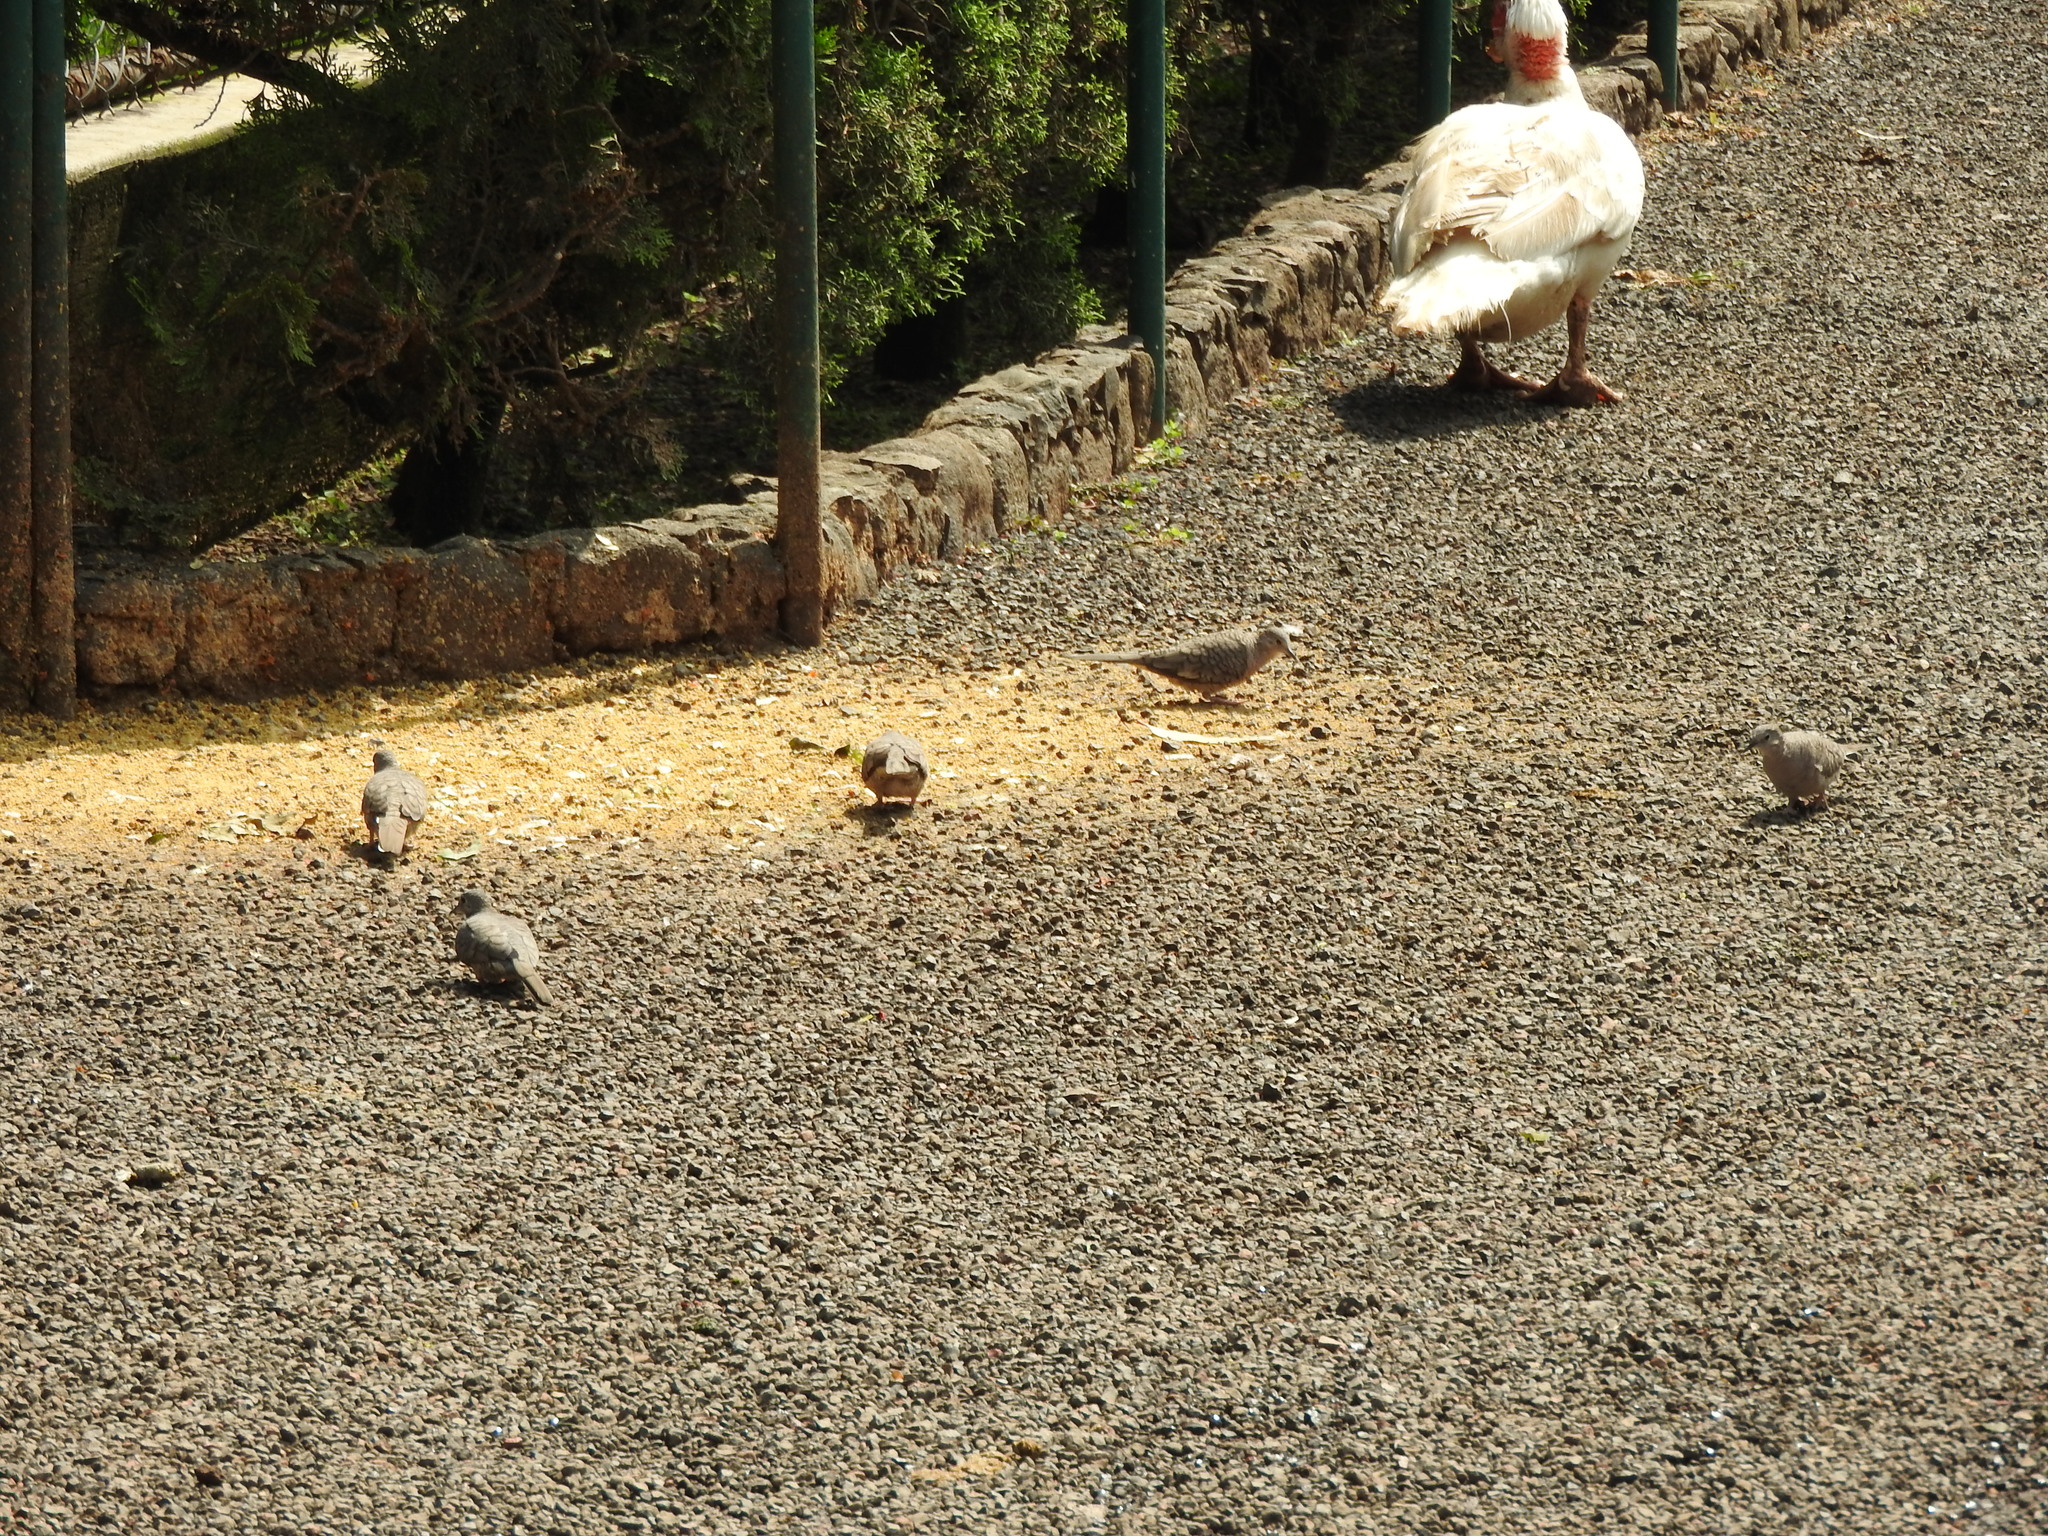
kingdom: Animalia
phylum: Chordata
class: Aves
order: Columbiformes
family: Columbidae
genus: Columbina
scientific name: Columbina inca
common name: Inca dove
